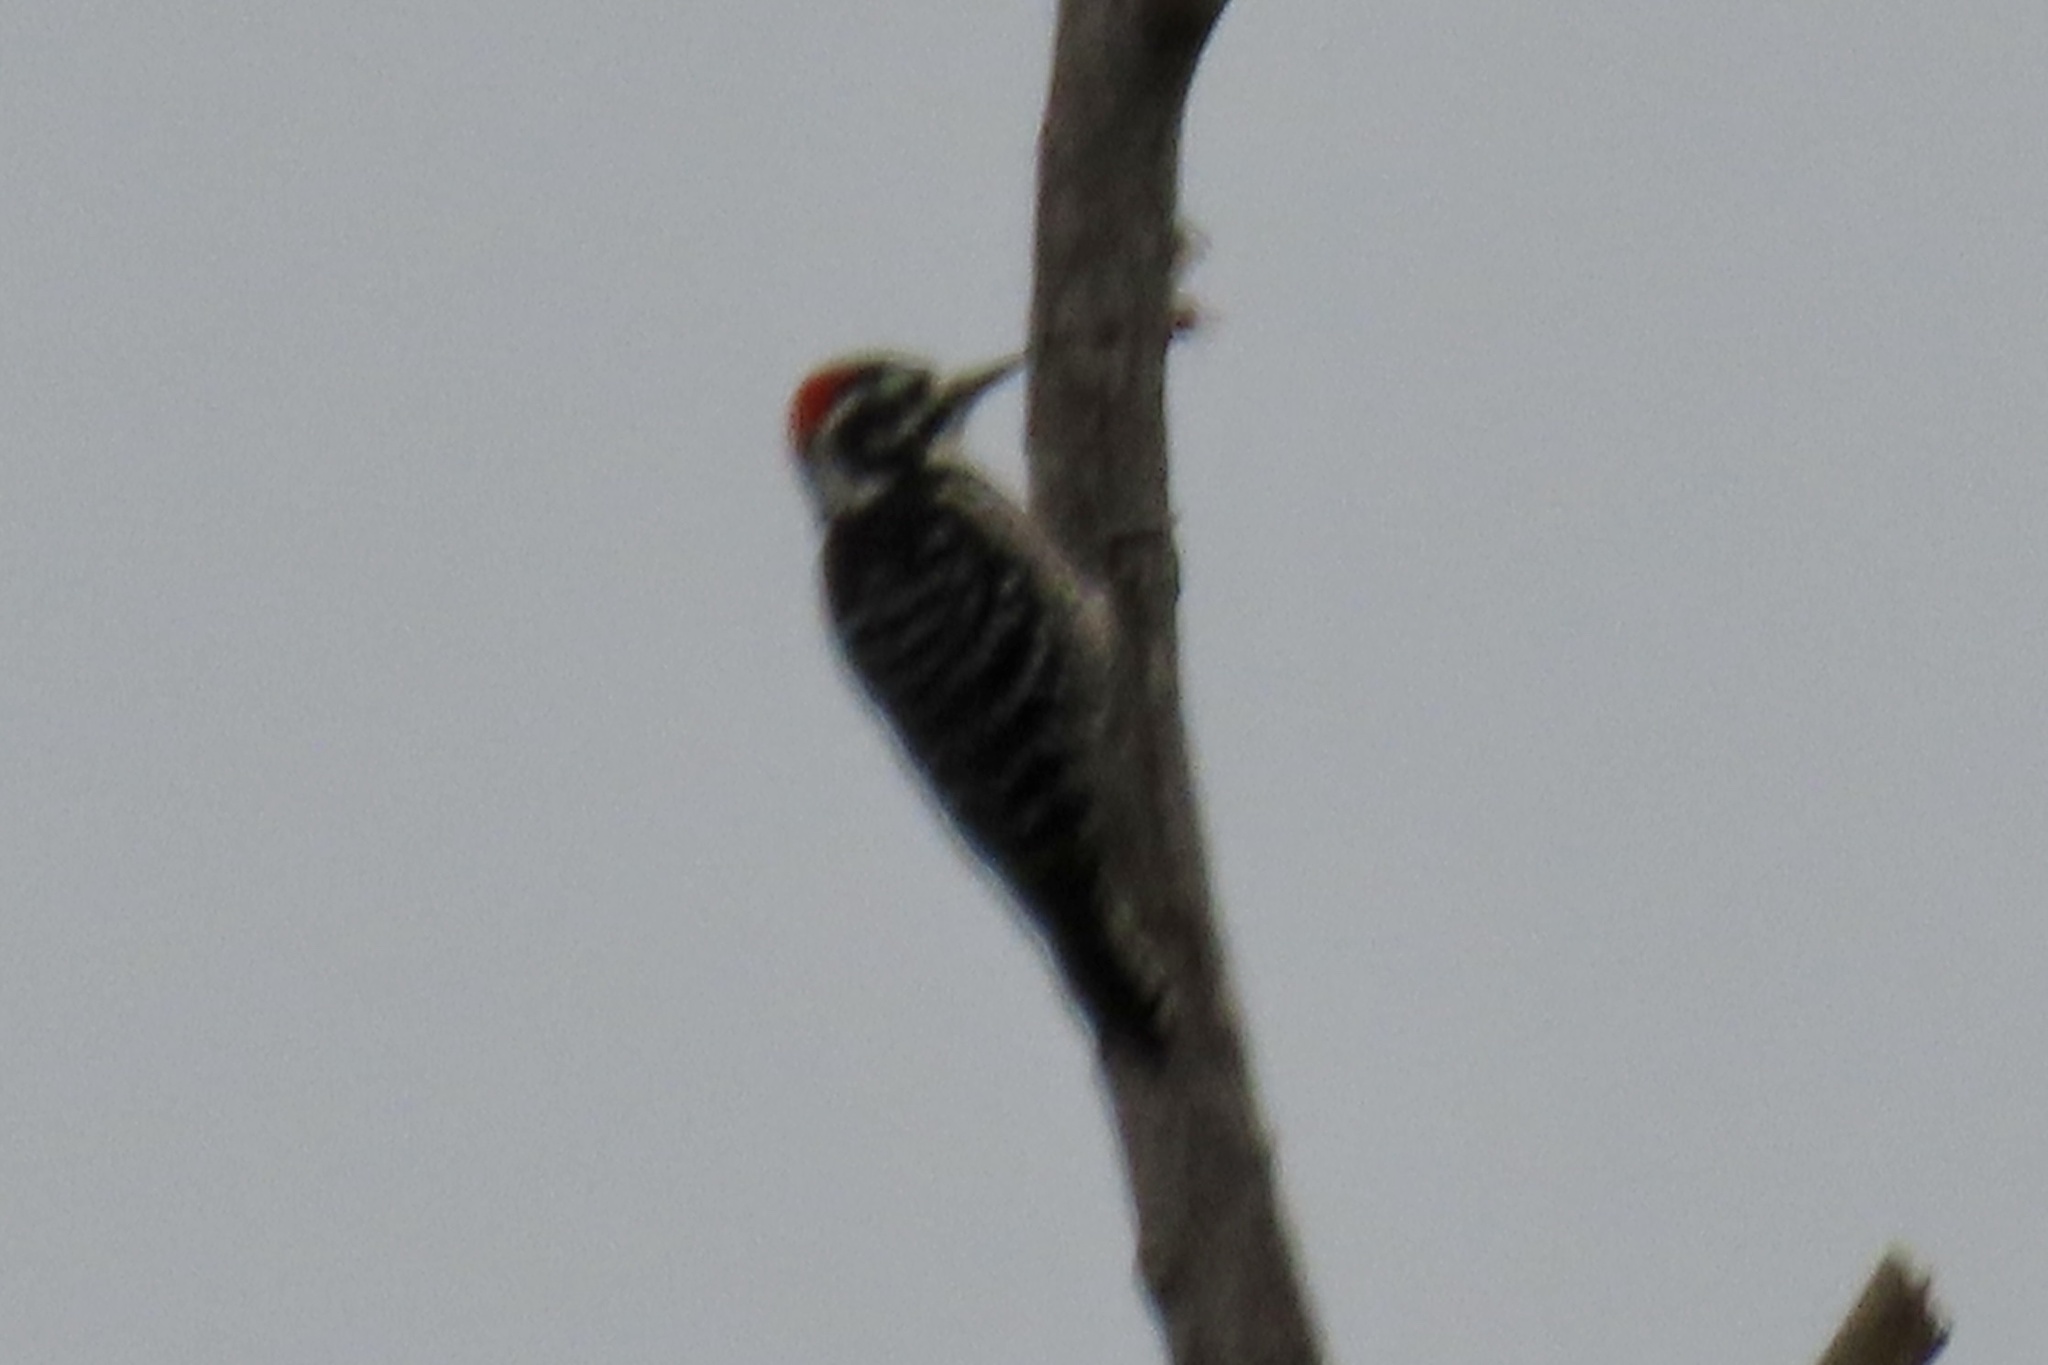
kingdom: Animalia
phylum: Chordata
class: Aves
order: Piciformes
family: Picidae
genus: Dryobates
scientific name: Dryobates nuttallii
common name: Nuttall's woodpecker
